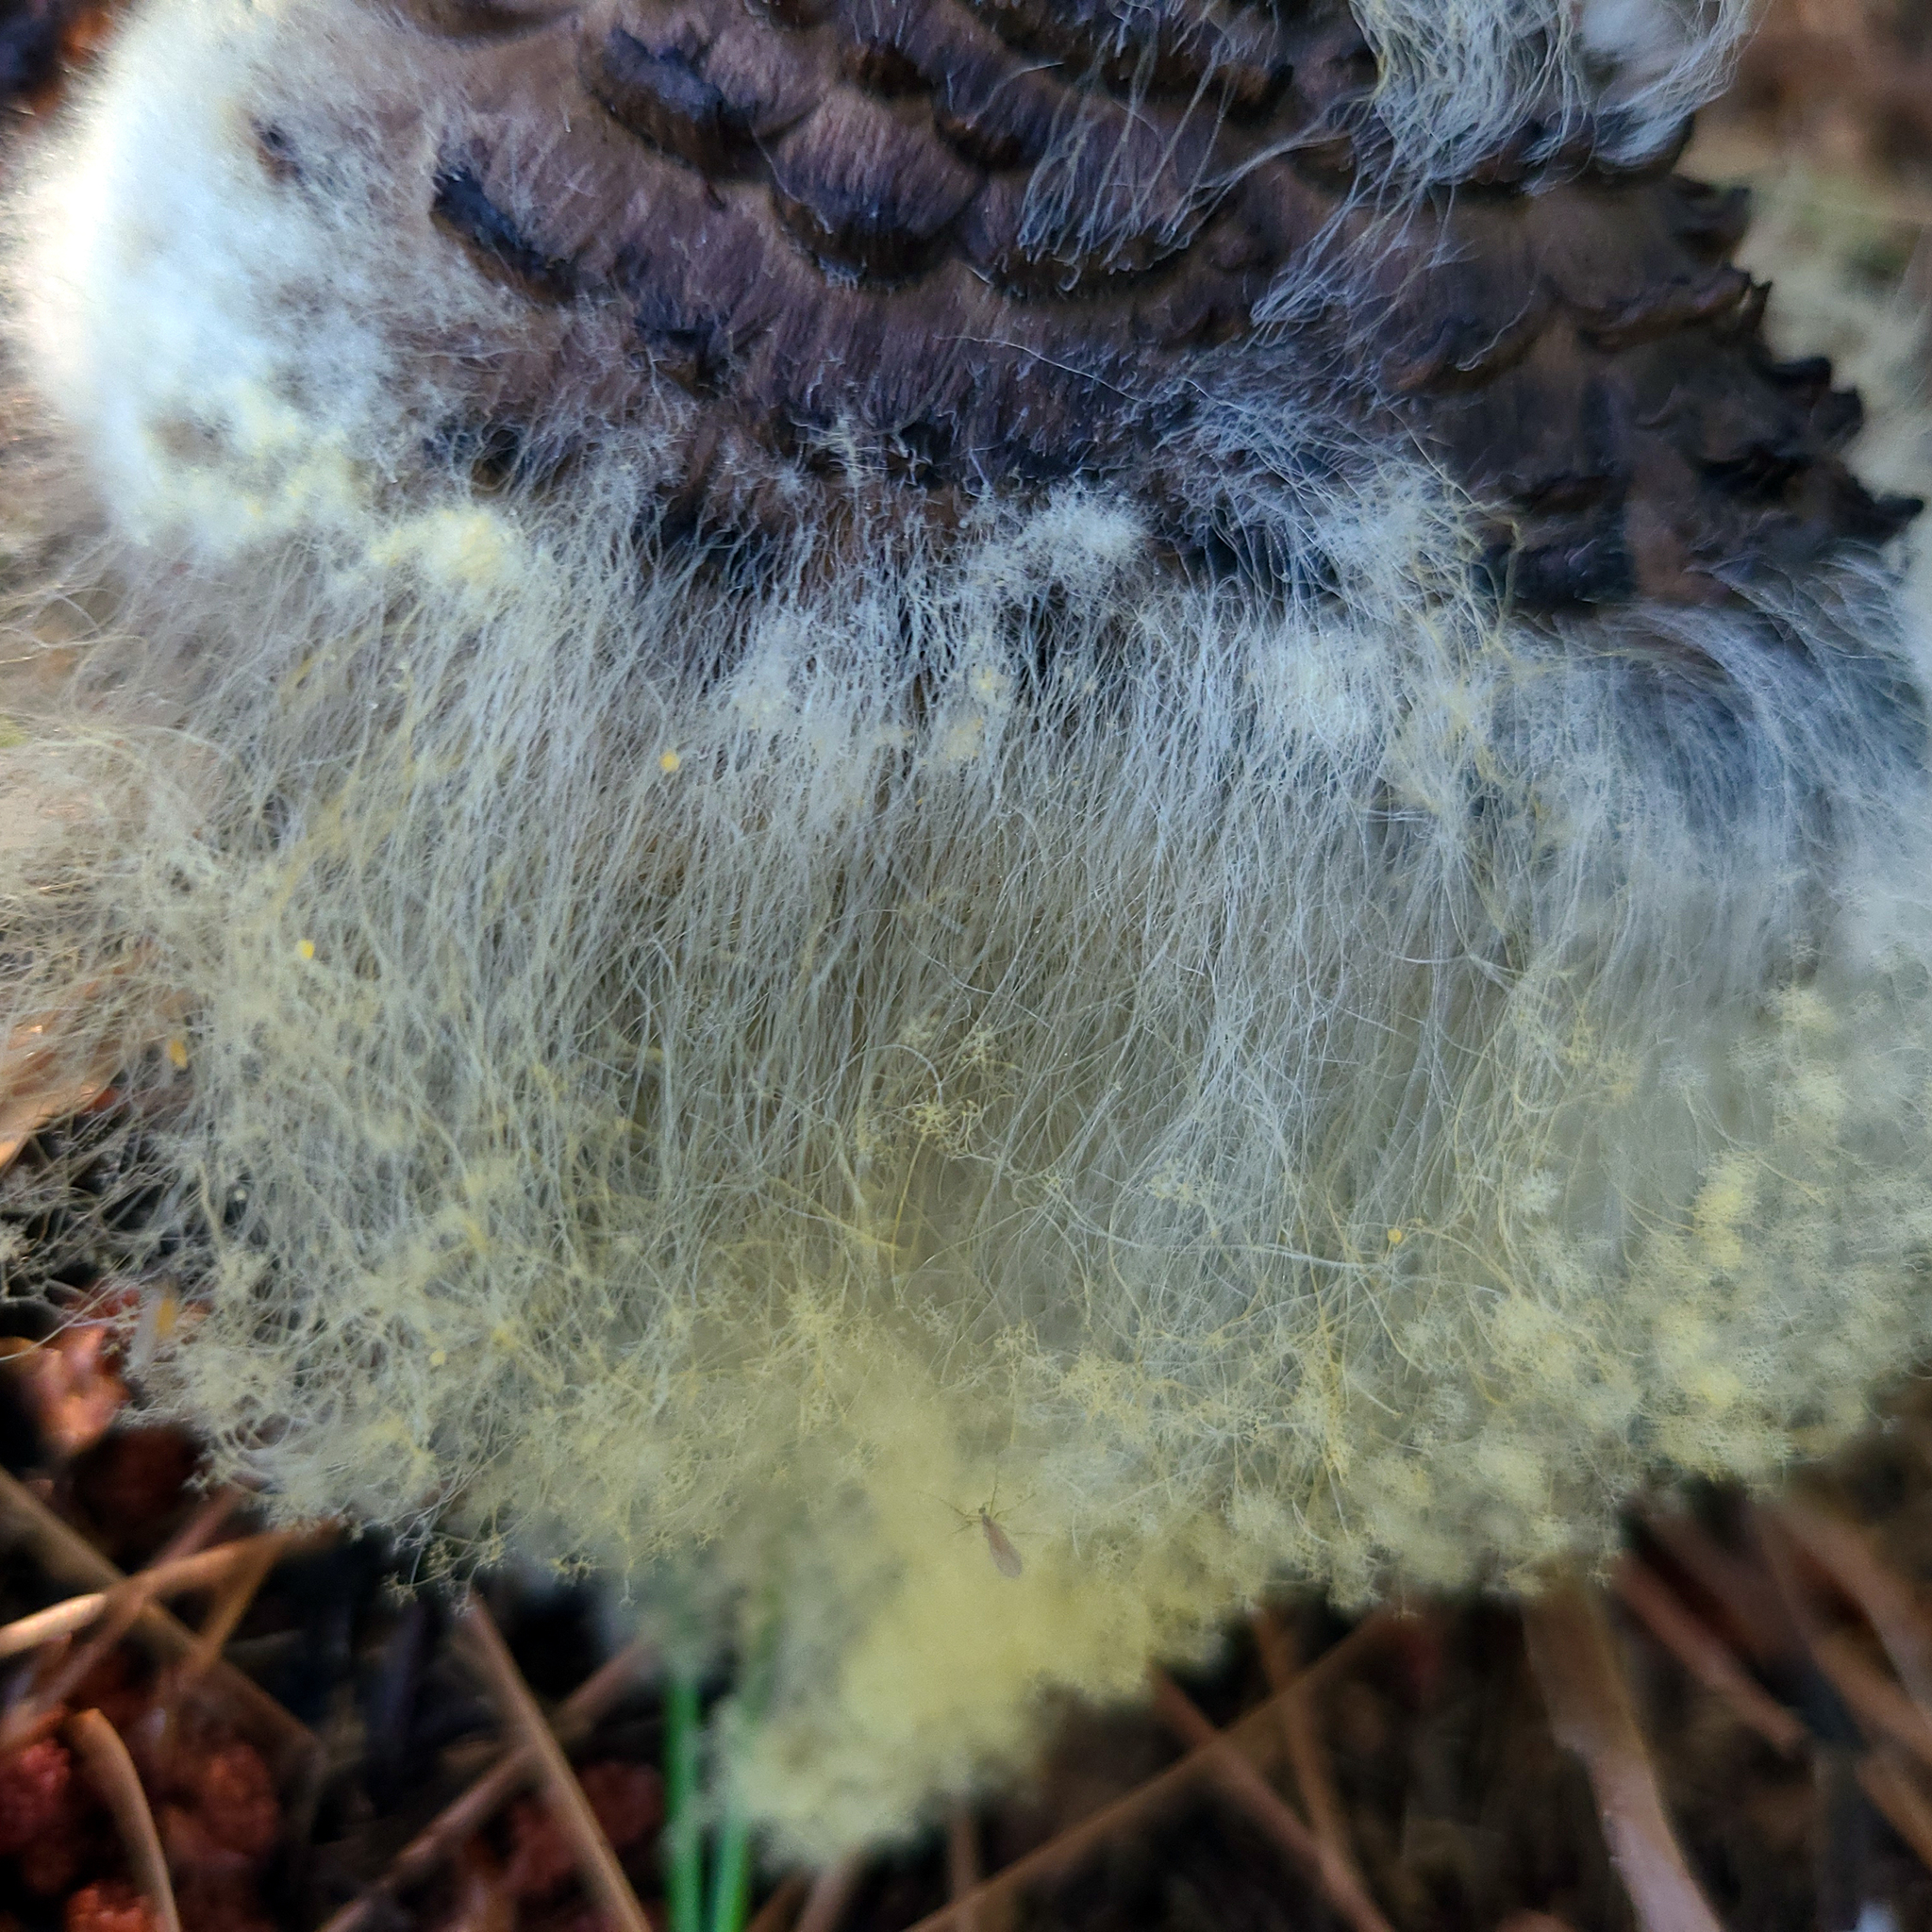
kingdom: Fungi
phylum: Mucoromycota
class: Mucoromycetes
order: Mucorales
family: Rhizopodaceae
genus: Syzygites
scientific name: Syzygites megalocarpus
